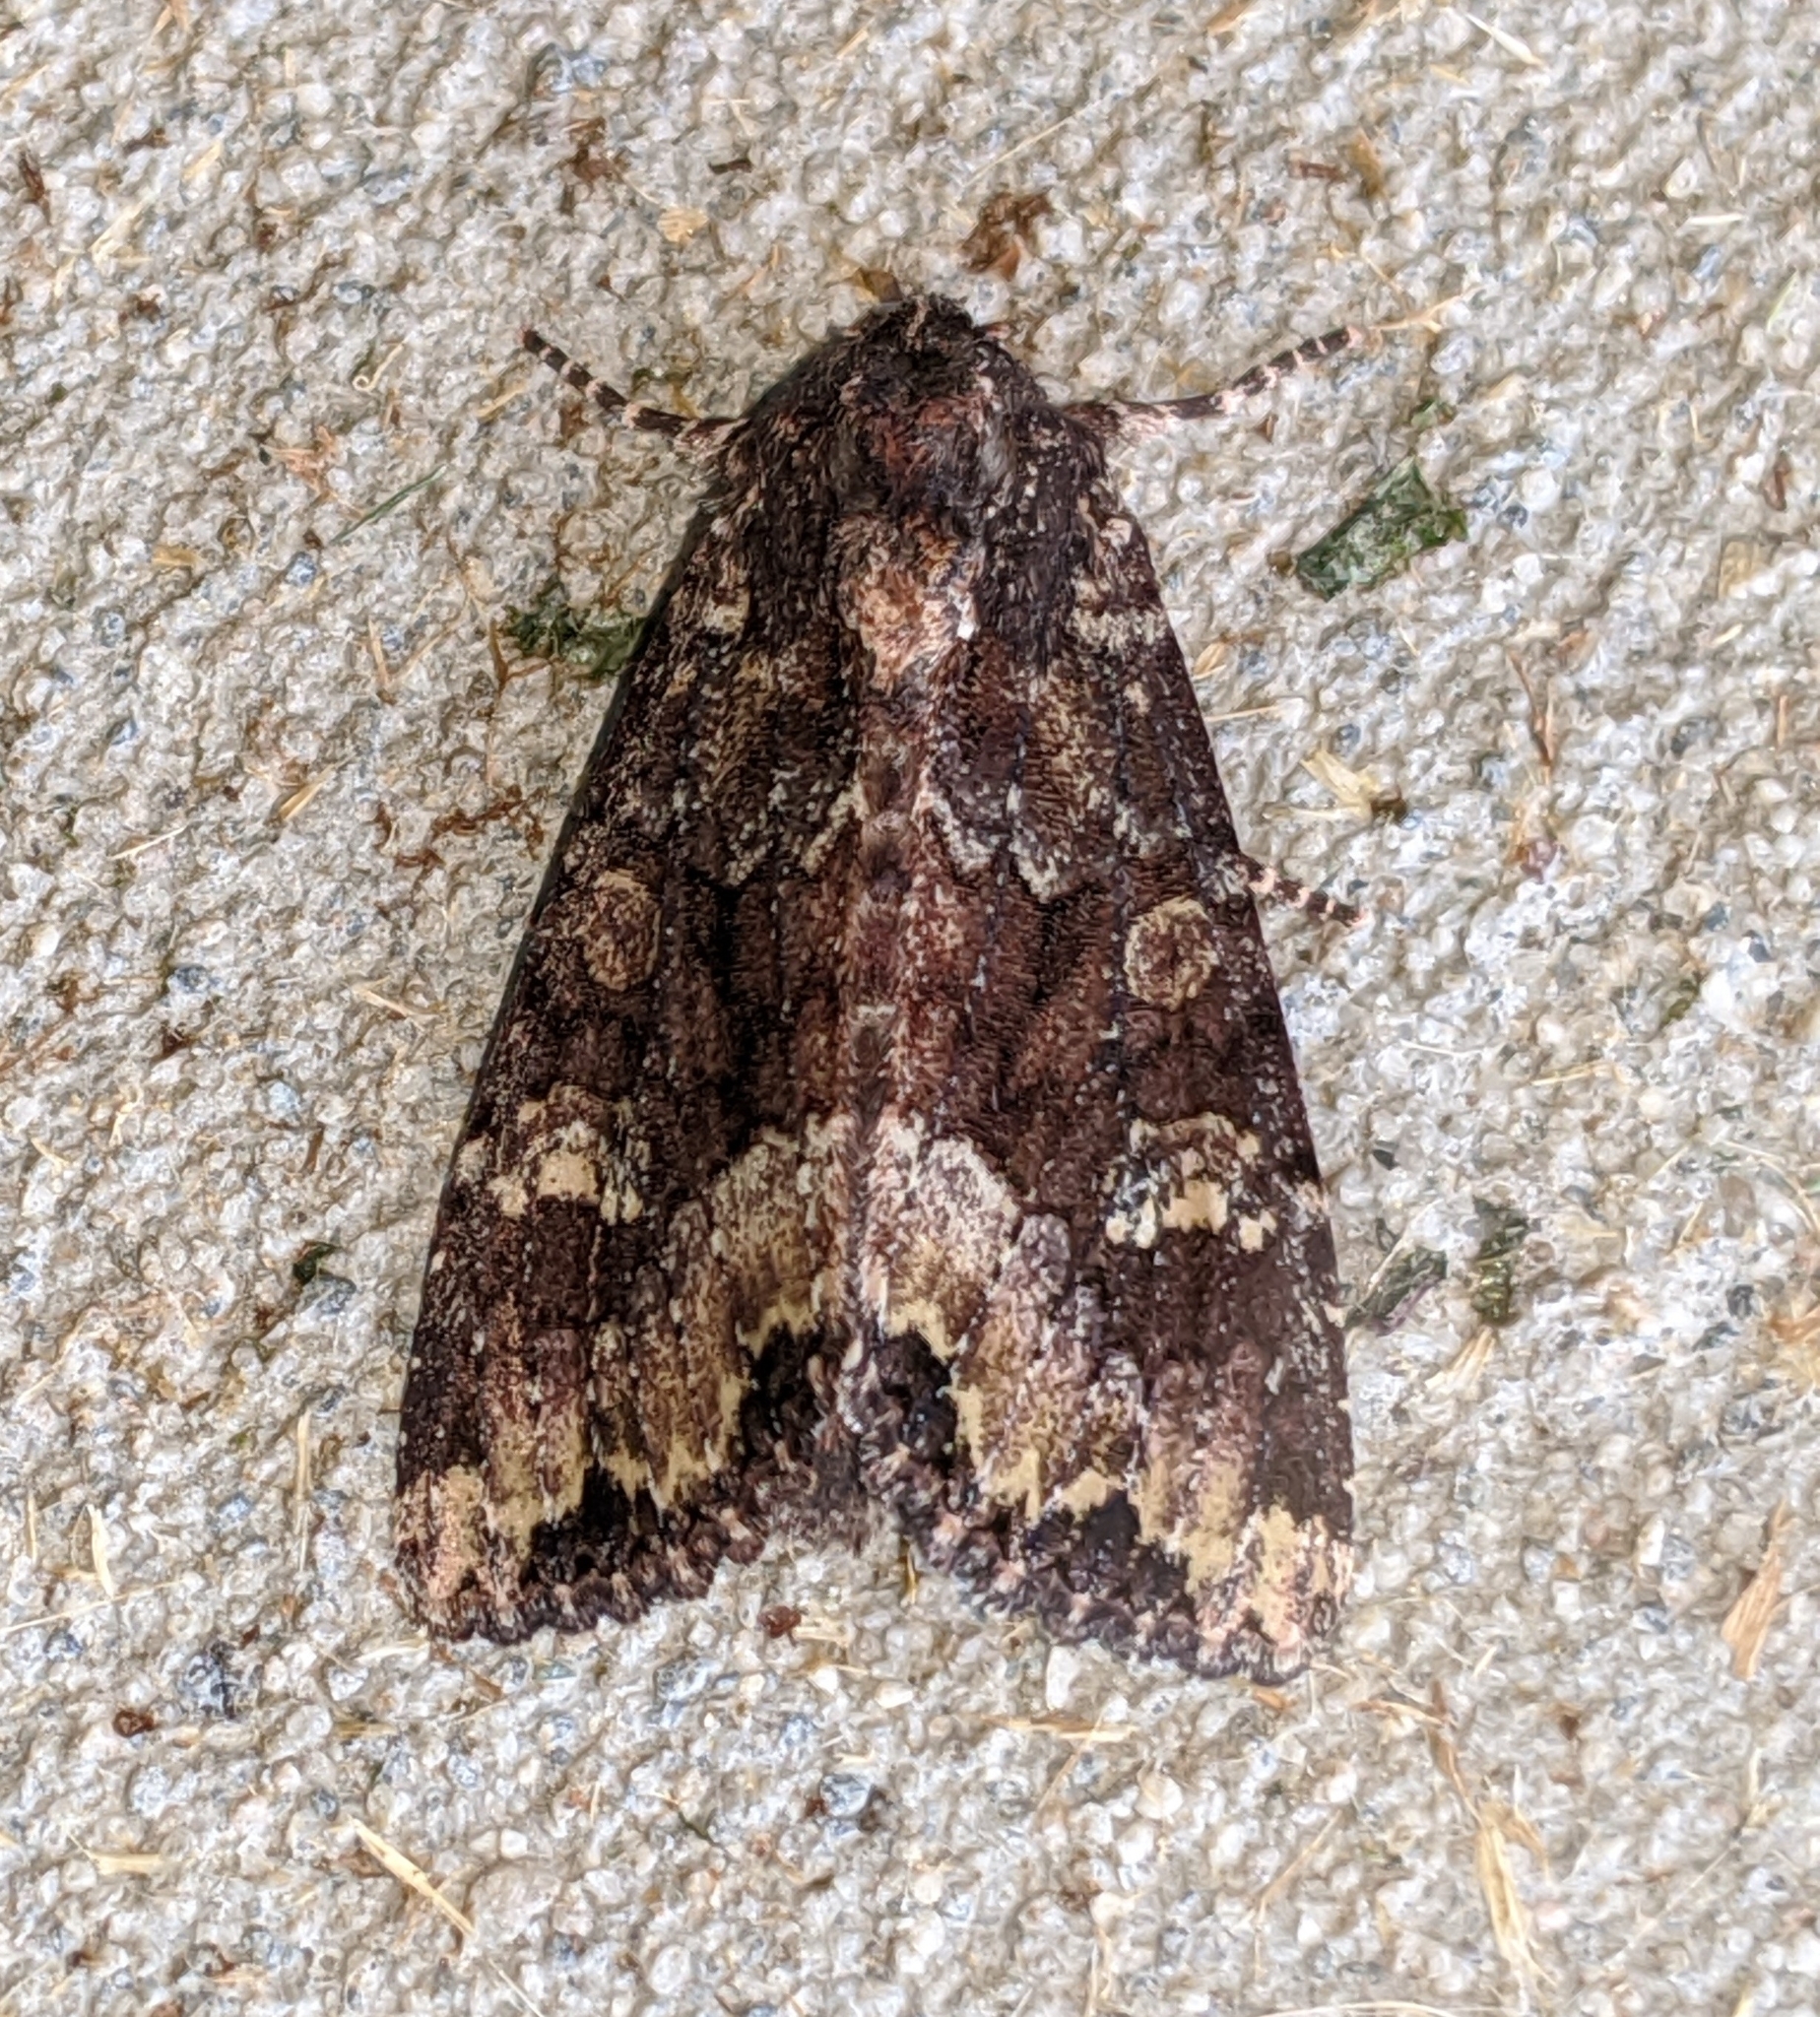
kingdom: Animalia
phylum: Arthropoda
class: Insecta
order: Lepidoptera
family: Noctuidae
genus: Apamea
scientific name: Apamea amputatrix
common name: Yellow-headed cutworm moth
